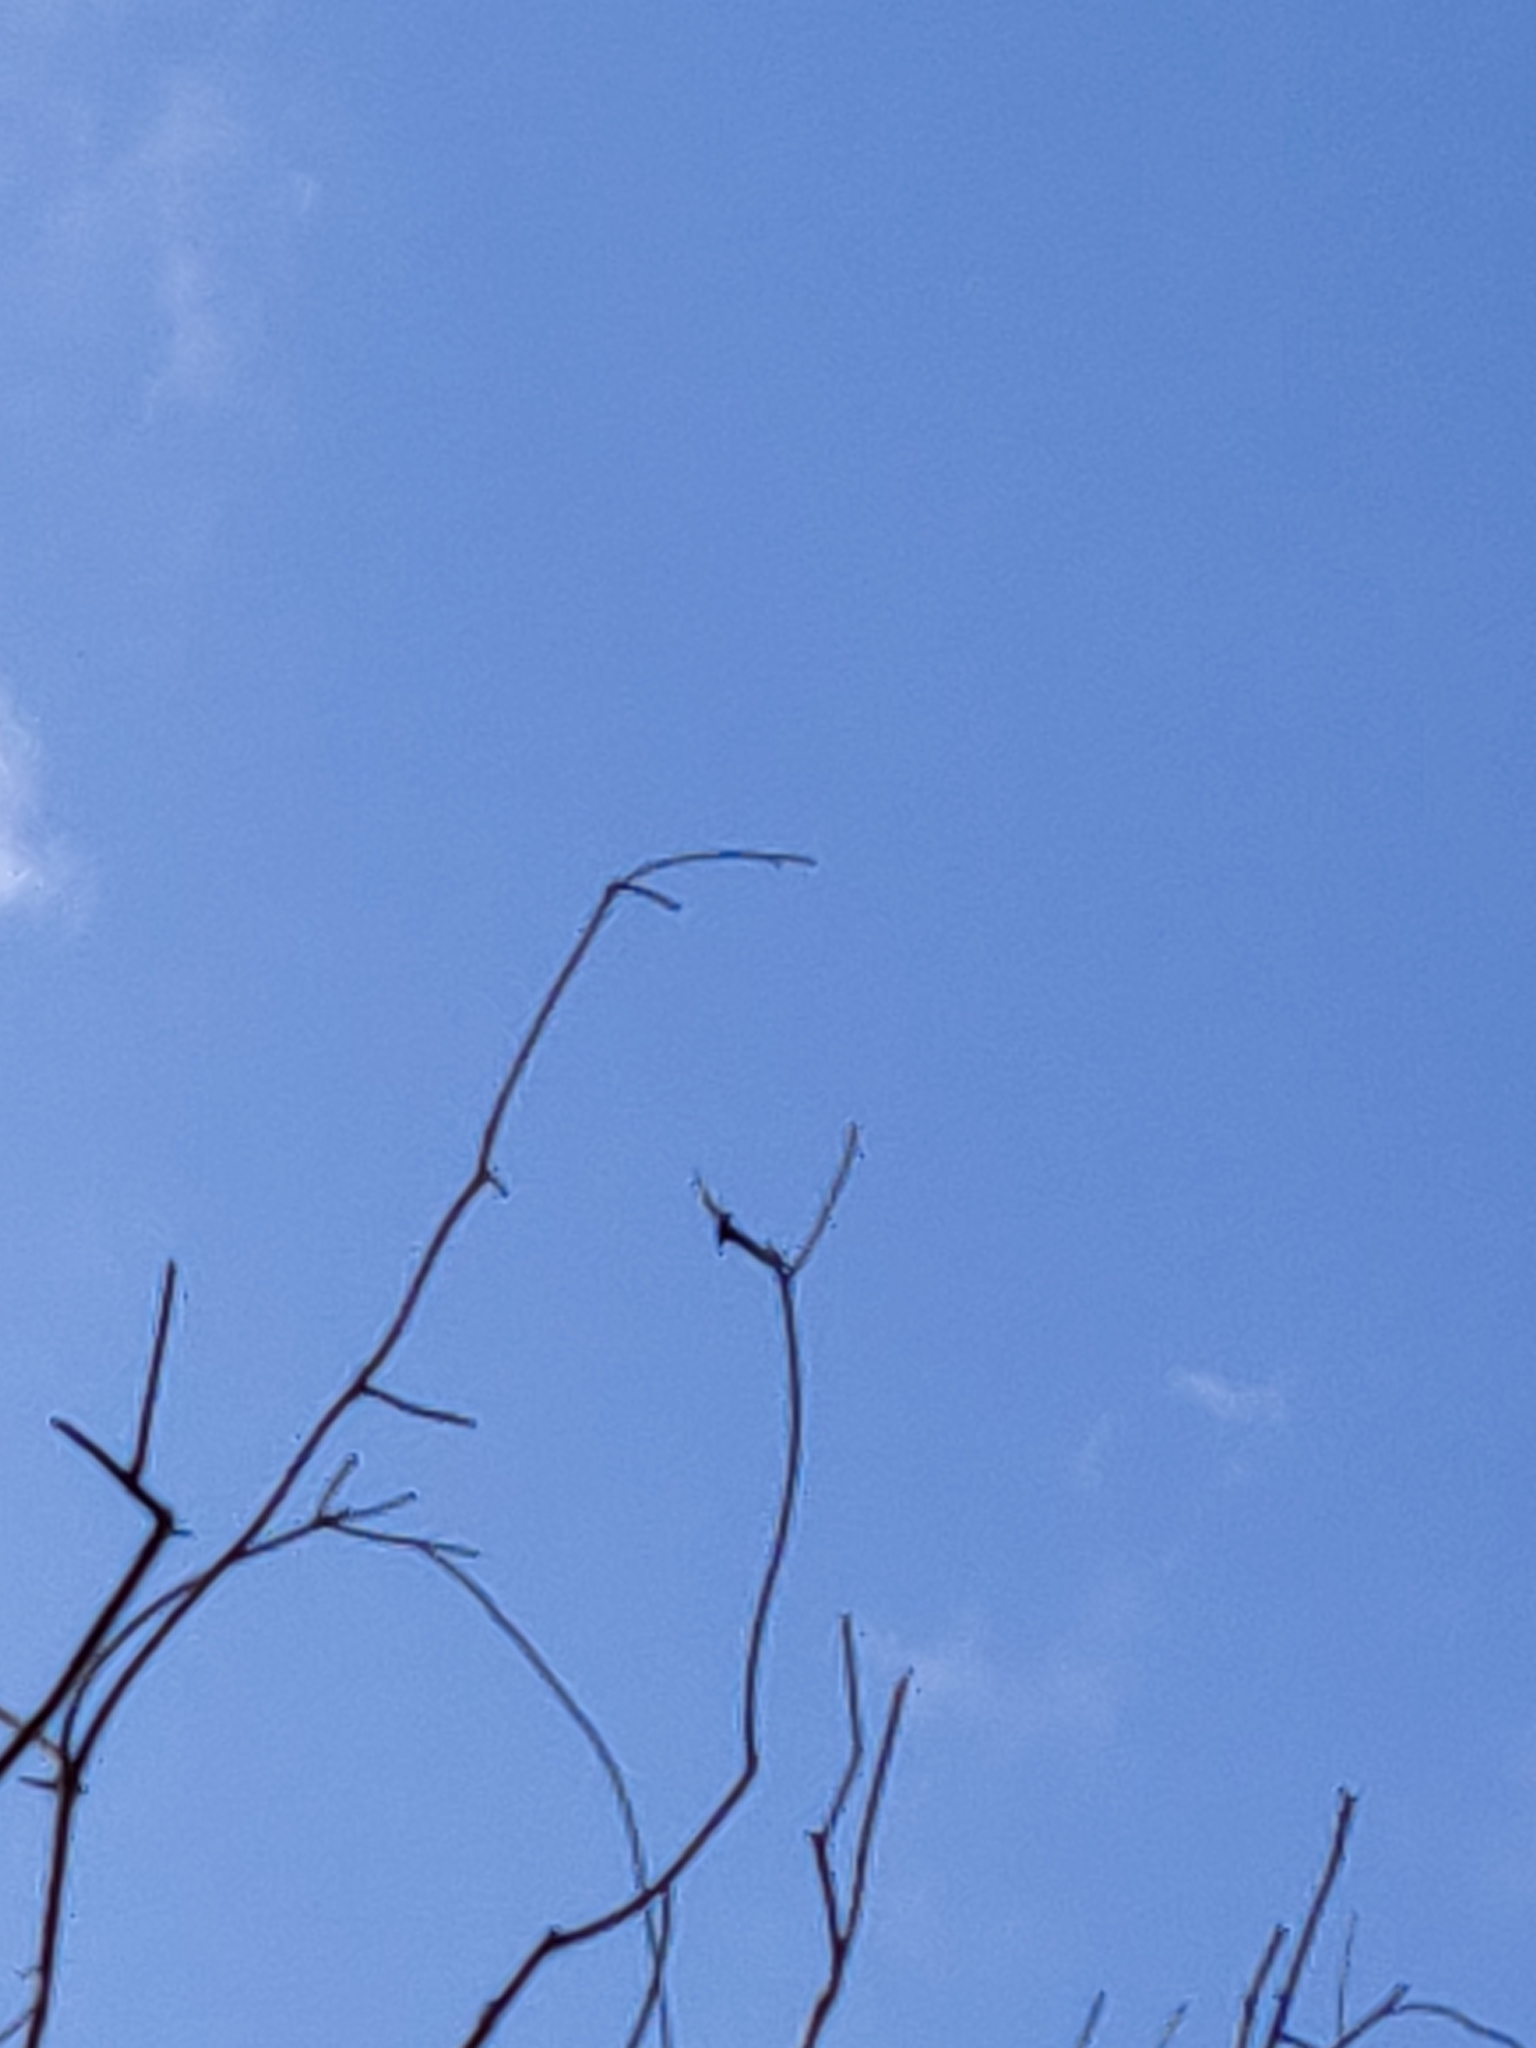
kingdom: Animalia
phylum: Chordata
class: Aves
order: Accipitriformes
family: Accipitridae
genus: Aquila
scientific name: Aquila audax
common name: Wedge-tailed eagle
